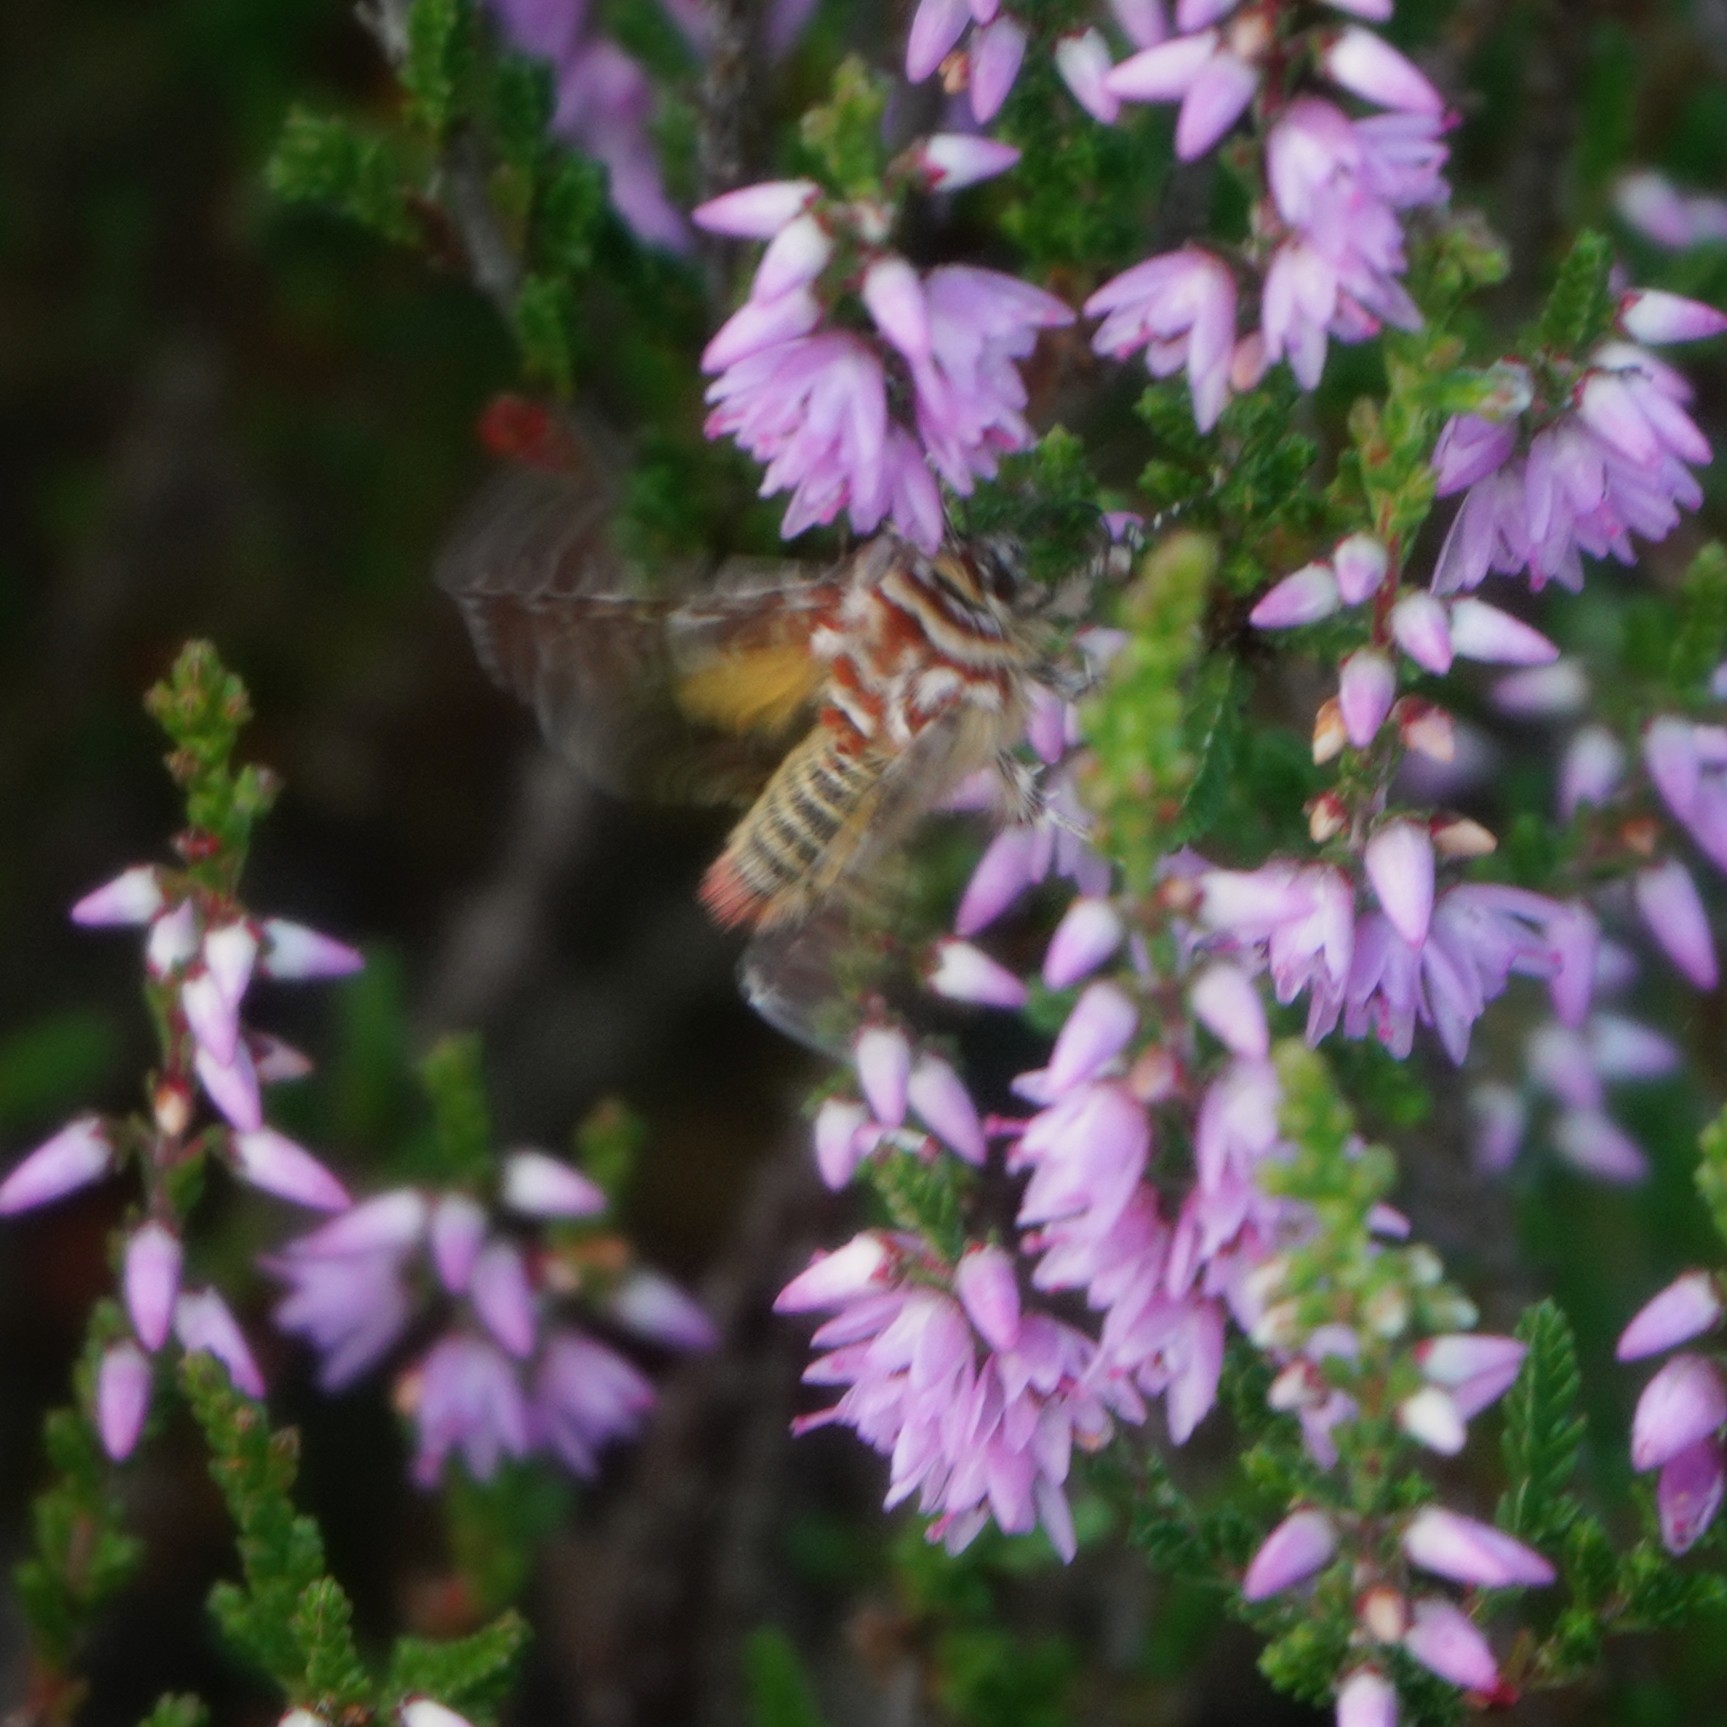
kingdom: Animalia
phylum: Arthropoda
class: Insecta
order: Lepidoptera
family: Noctuidae
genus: Anarta
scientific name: Anarta myrtilli
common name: Beautiful yellow underwing
